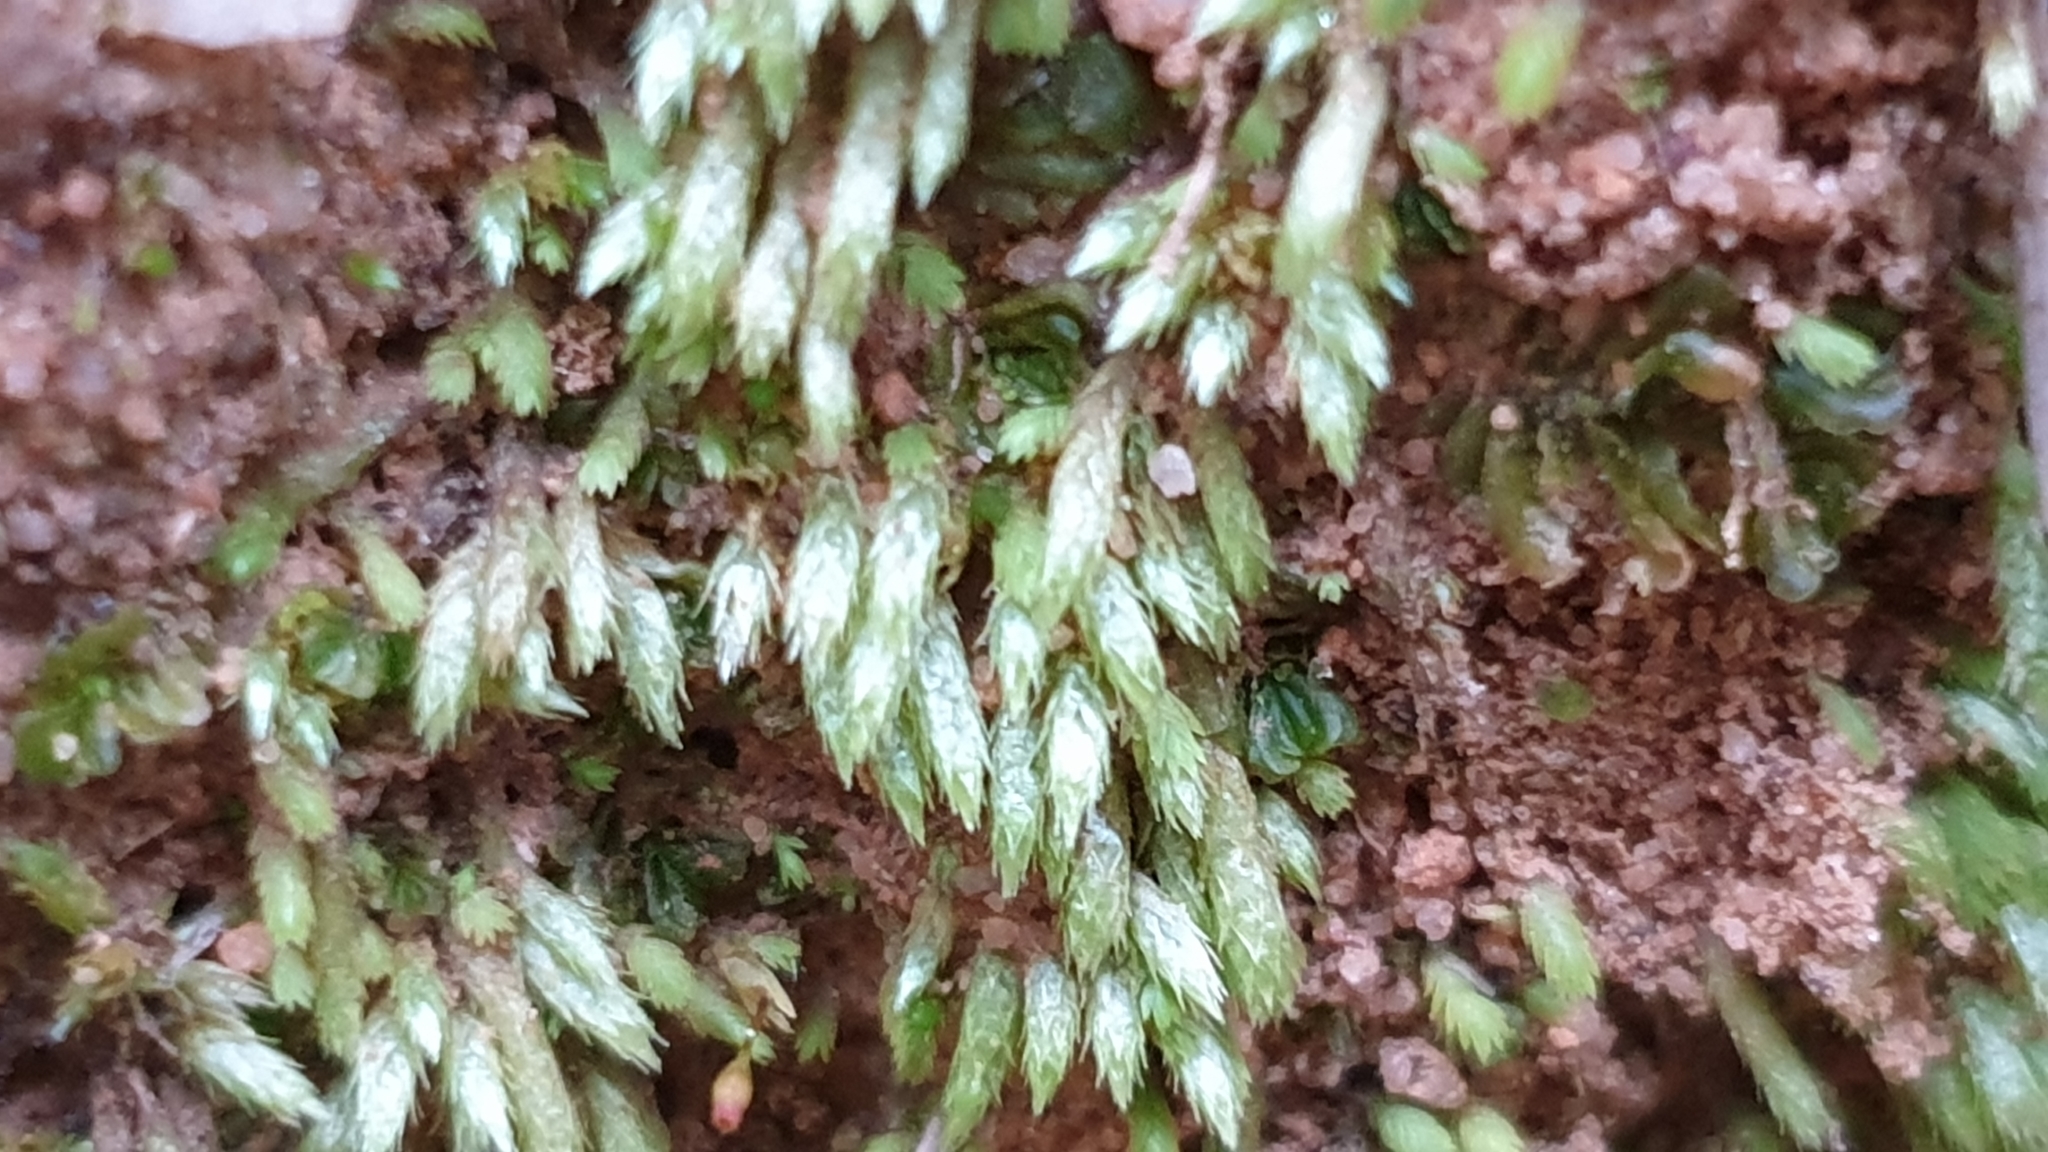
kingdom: Plantae
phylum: Bryophyta
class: Bryopsida
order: Bryales
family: Bryaceae
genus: Bryum
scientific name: Bryum argenteum
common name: Silver-moss
